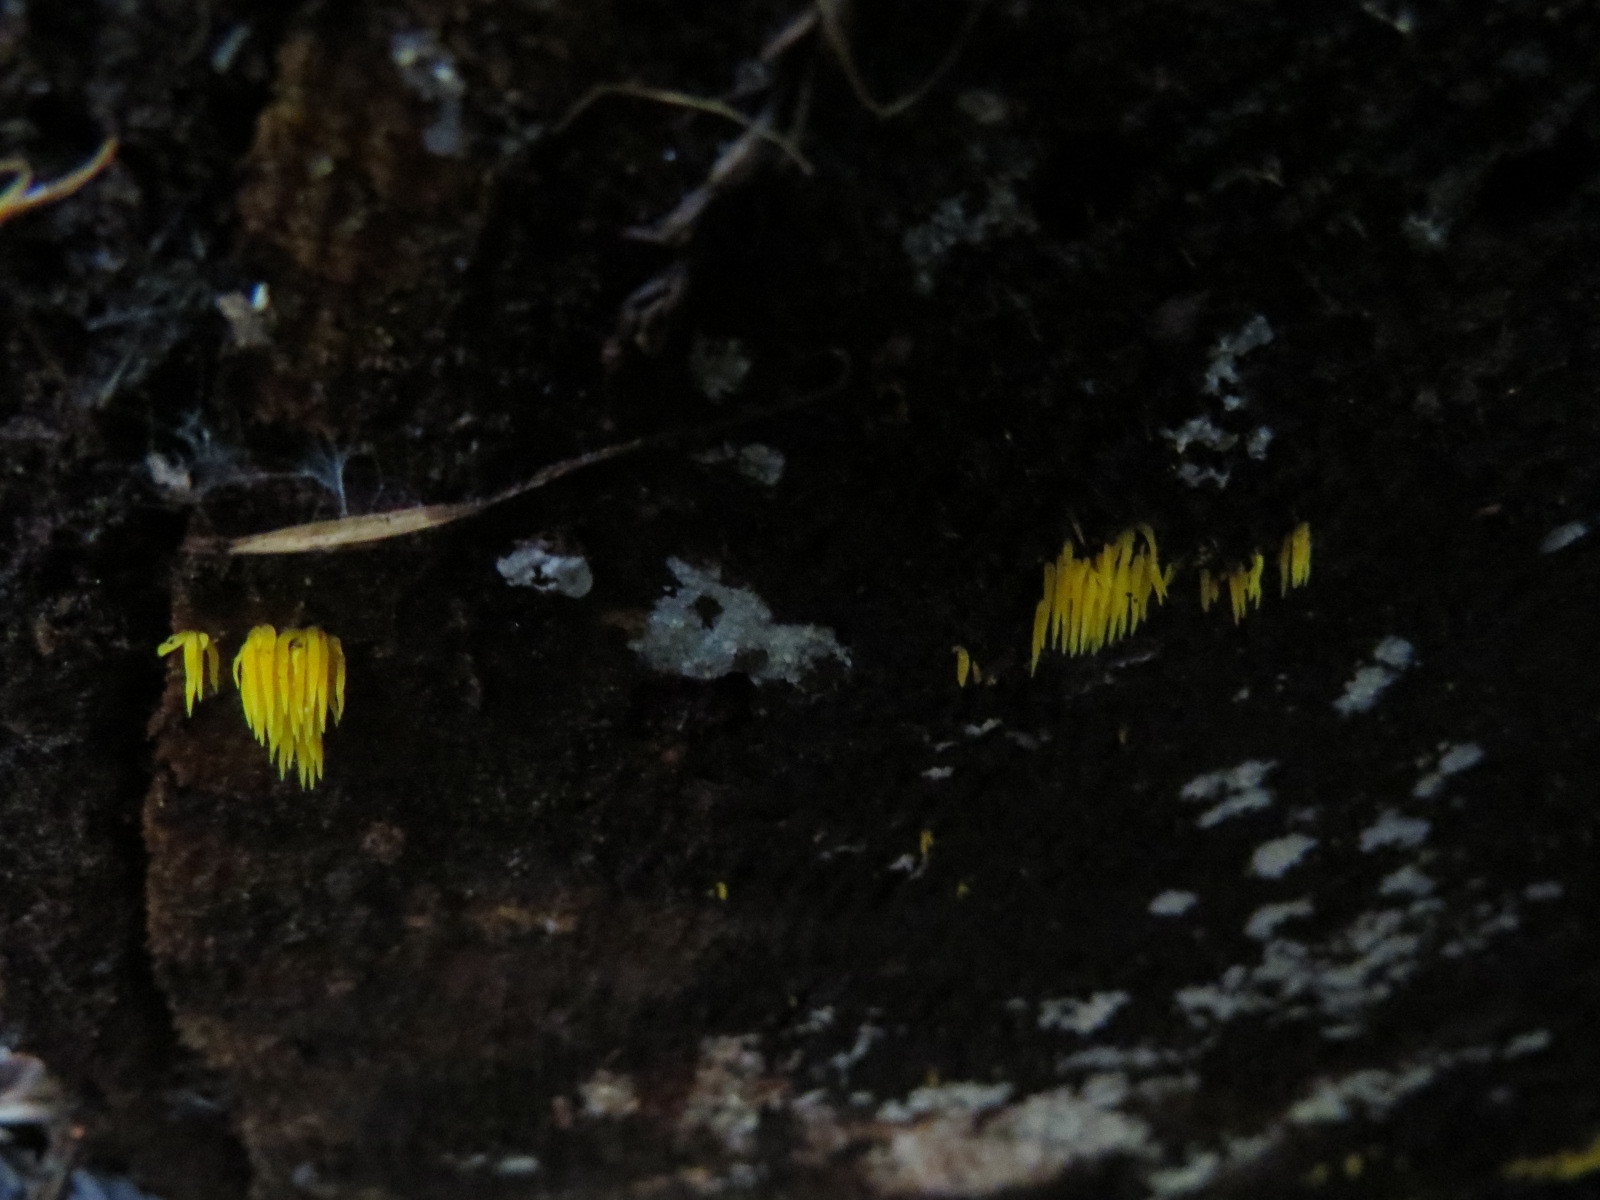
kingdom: Fungi
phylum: Basidiomycota
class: Agaricomycetes
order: Agaricales
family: Clavariaceae
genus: Mucronella
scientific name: Mucronella flava
